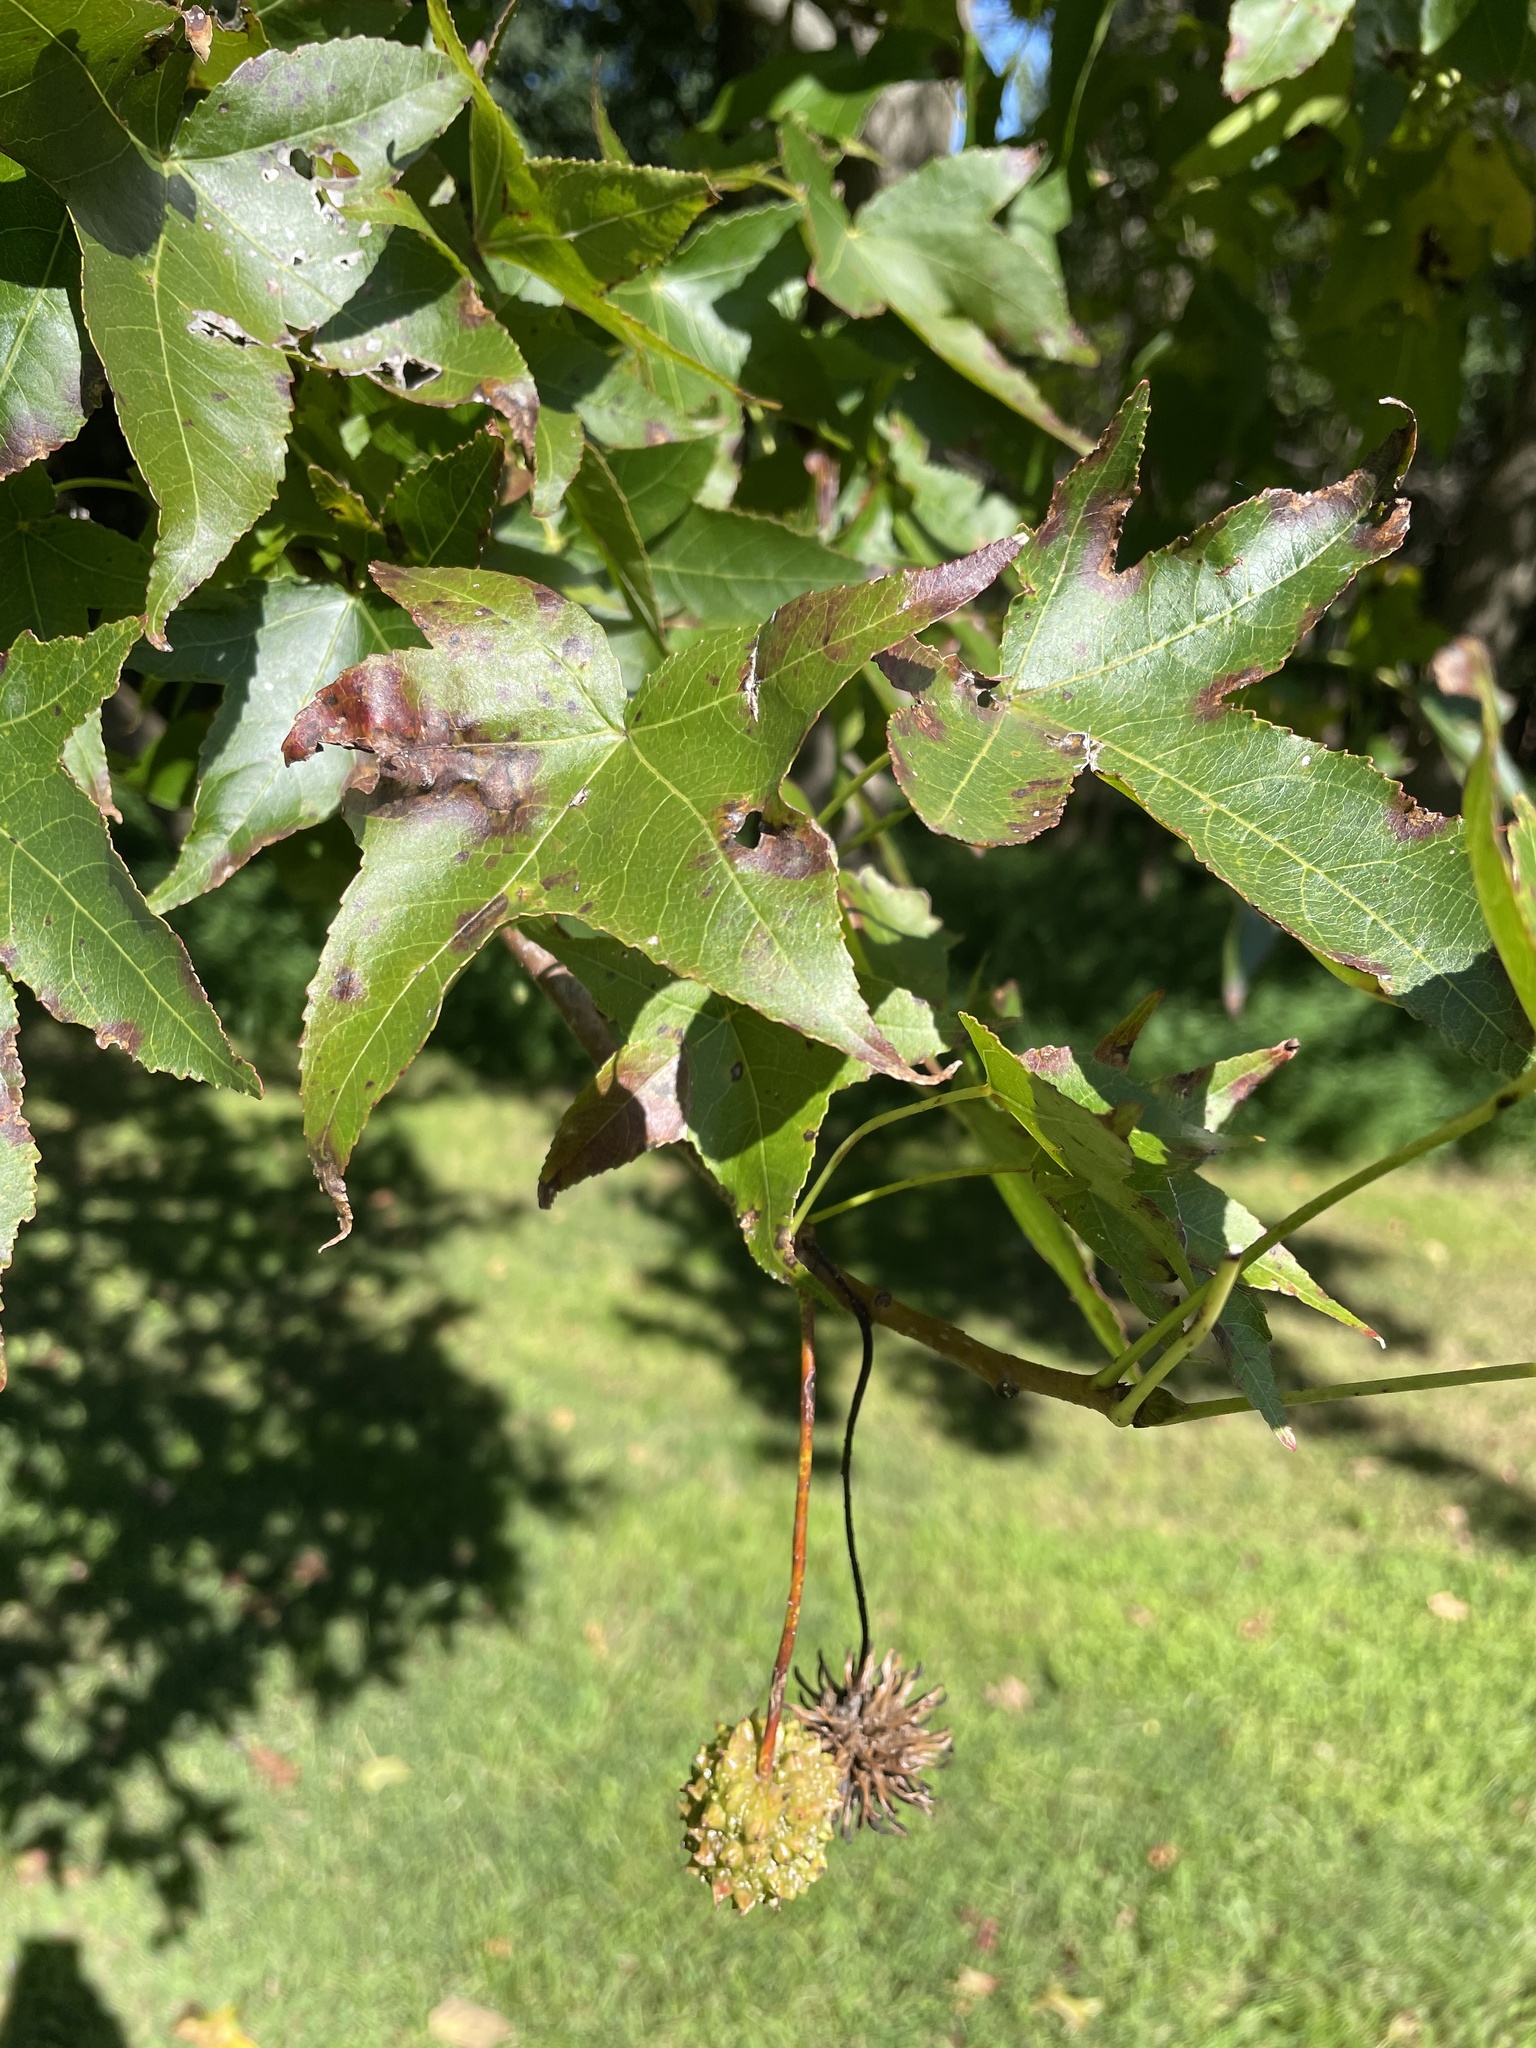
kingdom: Plantae
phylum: Tracheophyta
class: Magnoliopsida
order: Saxifragales
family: Altingiaceae
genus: Liquidambar
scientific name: Liquidambar styraciflua
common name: Sweet gum
